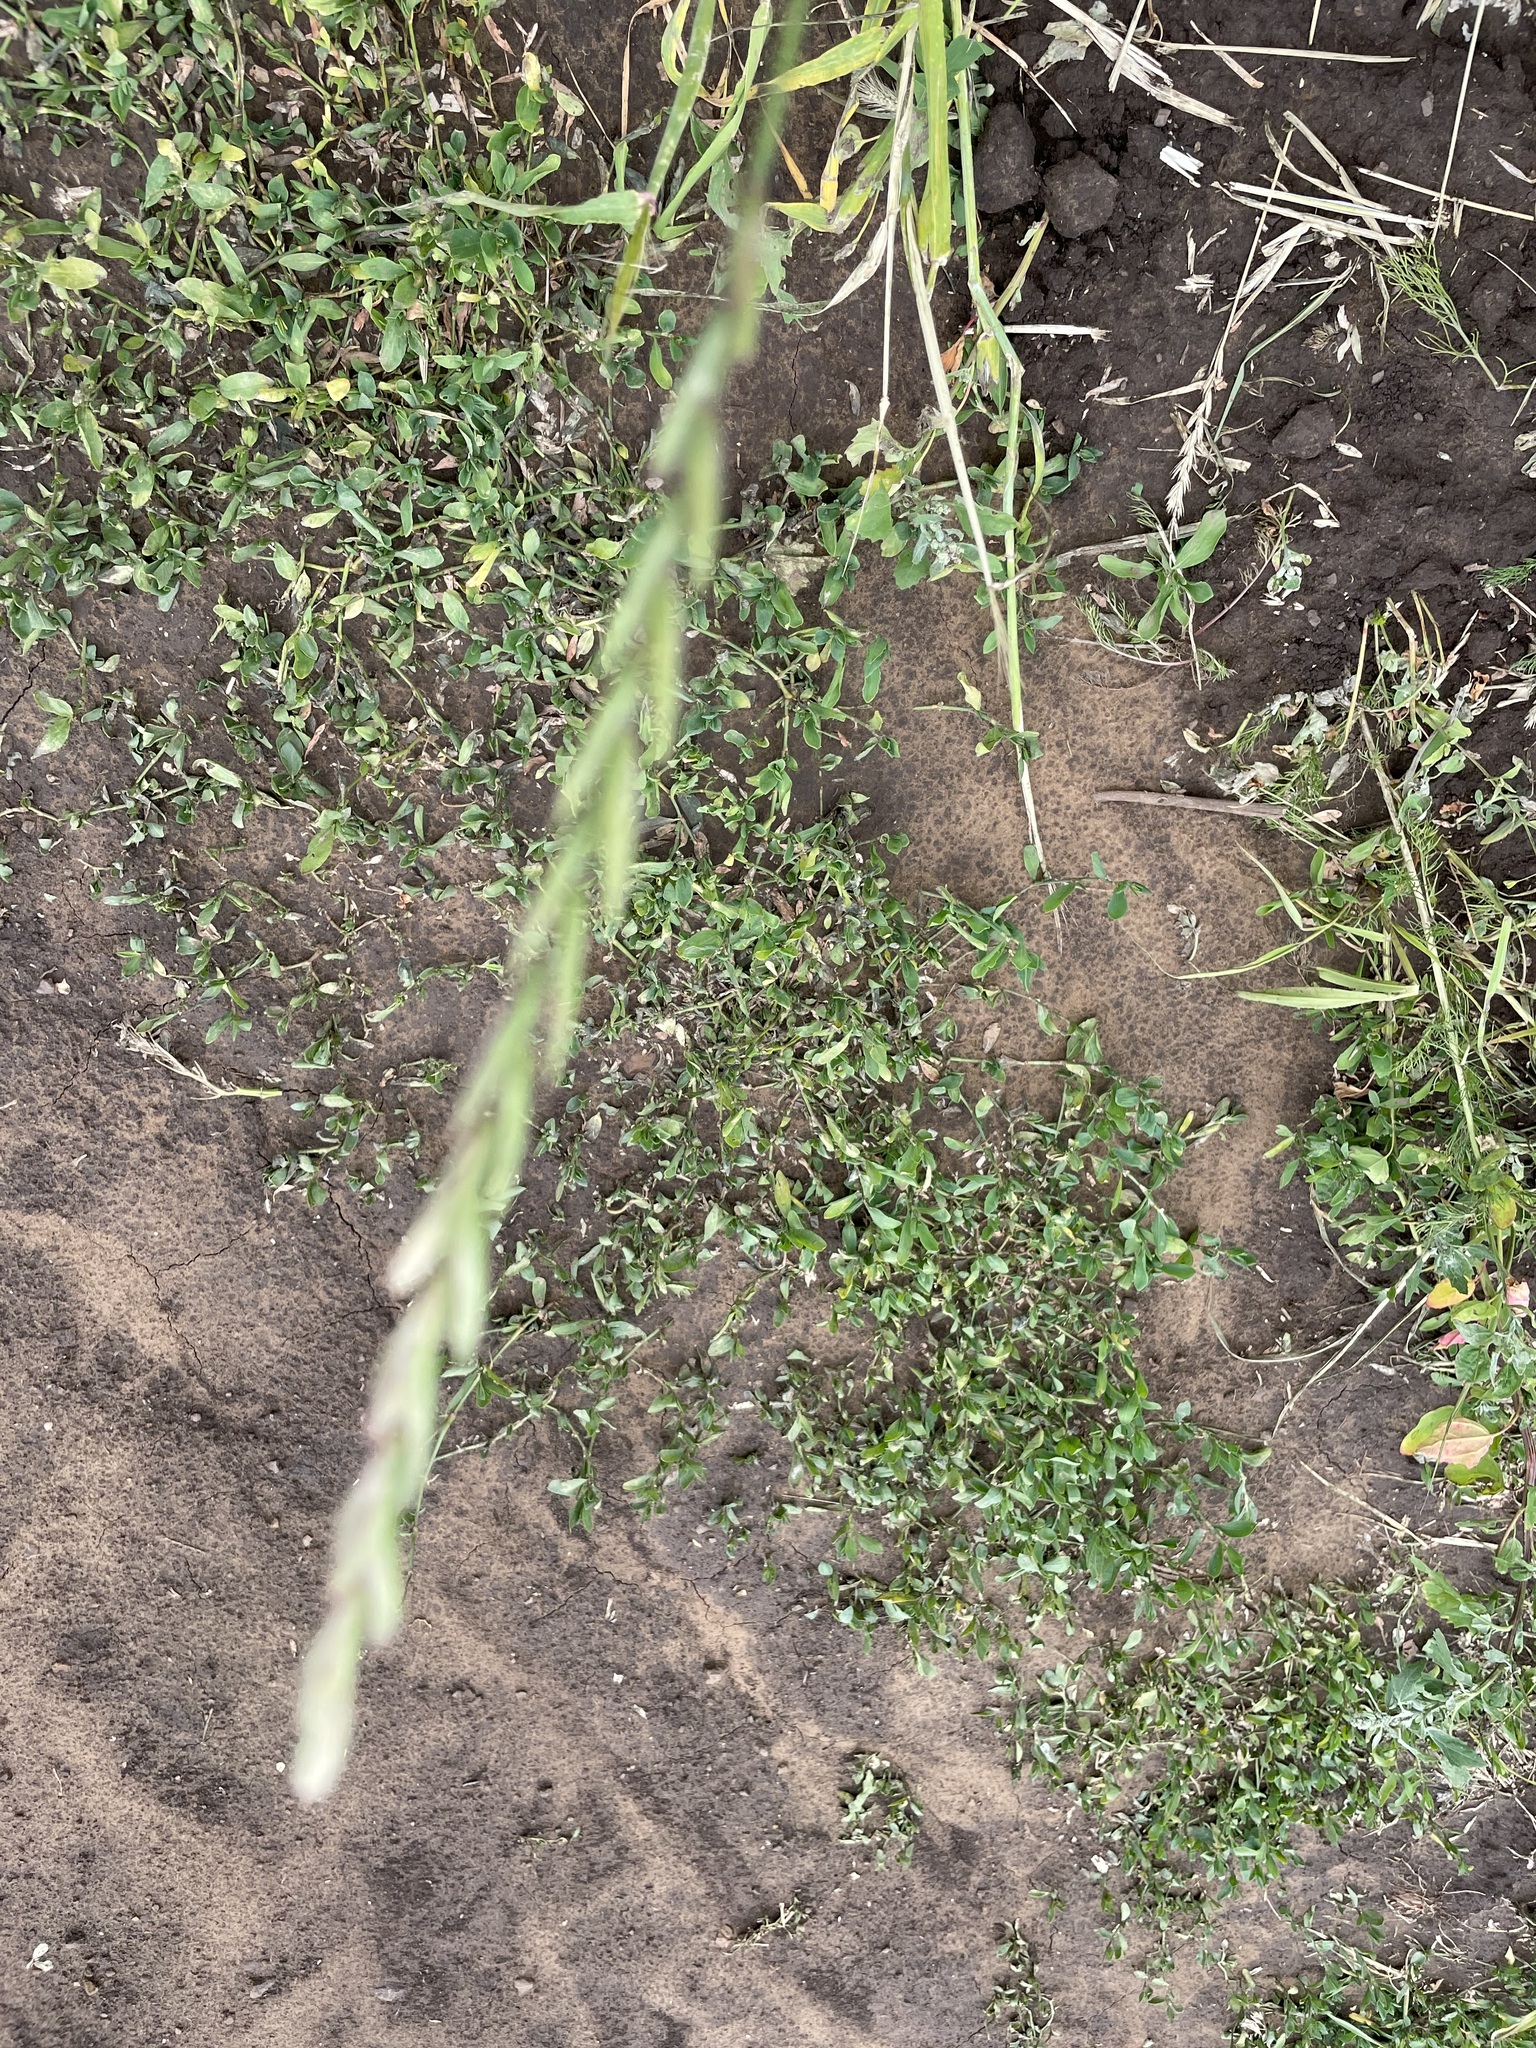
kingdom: Plantae
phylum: Tracheophyta
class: Liliopsida
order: Poales
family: Poaceae
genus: Elymus
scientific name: Elymus repens
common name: Quackgrass
